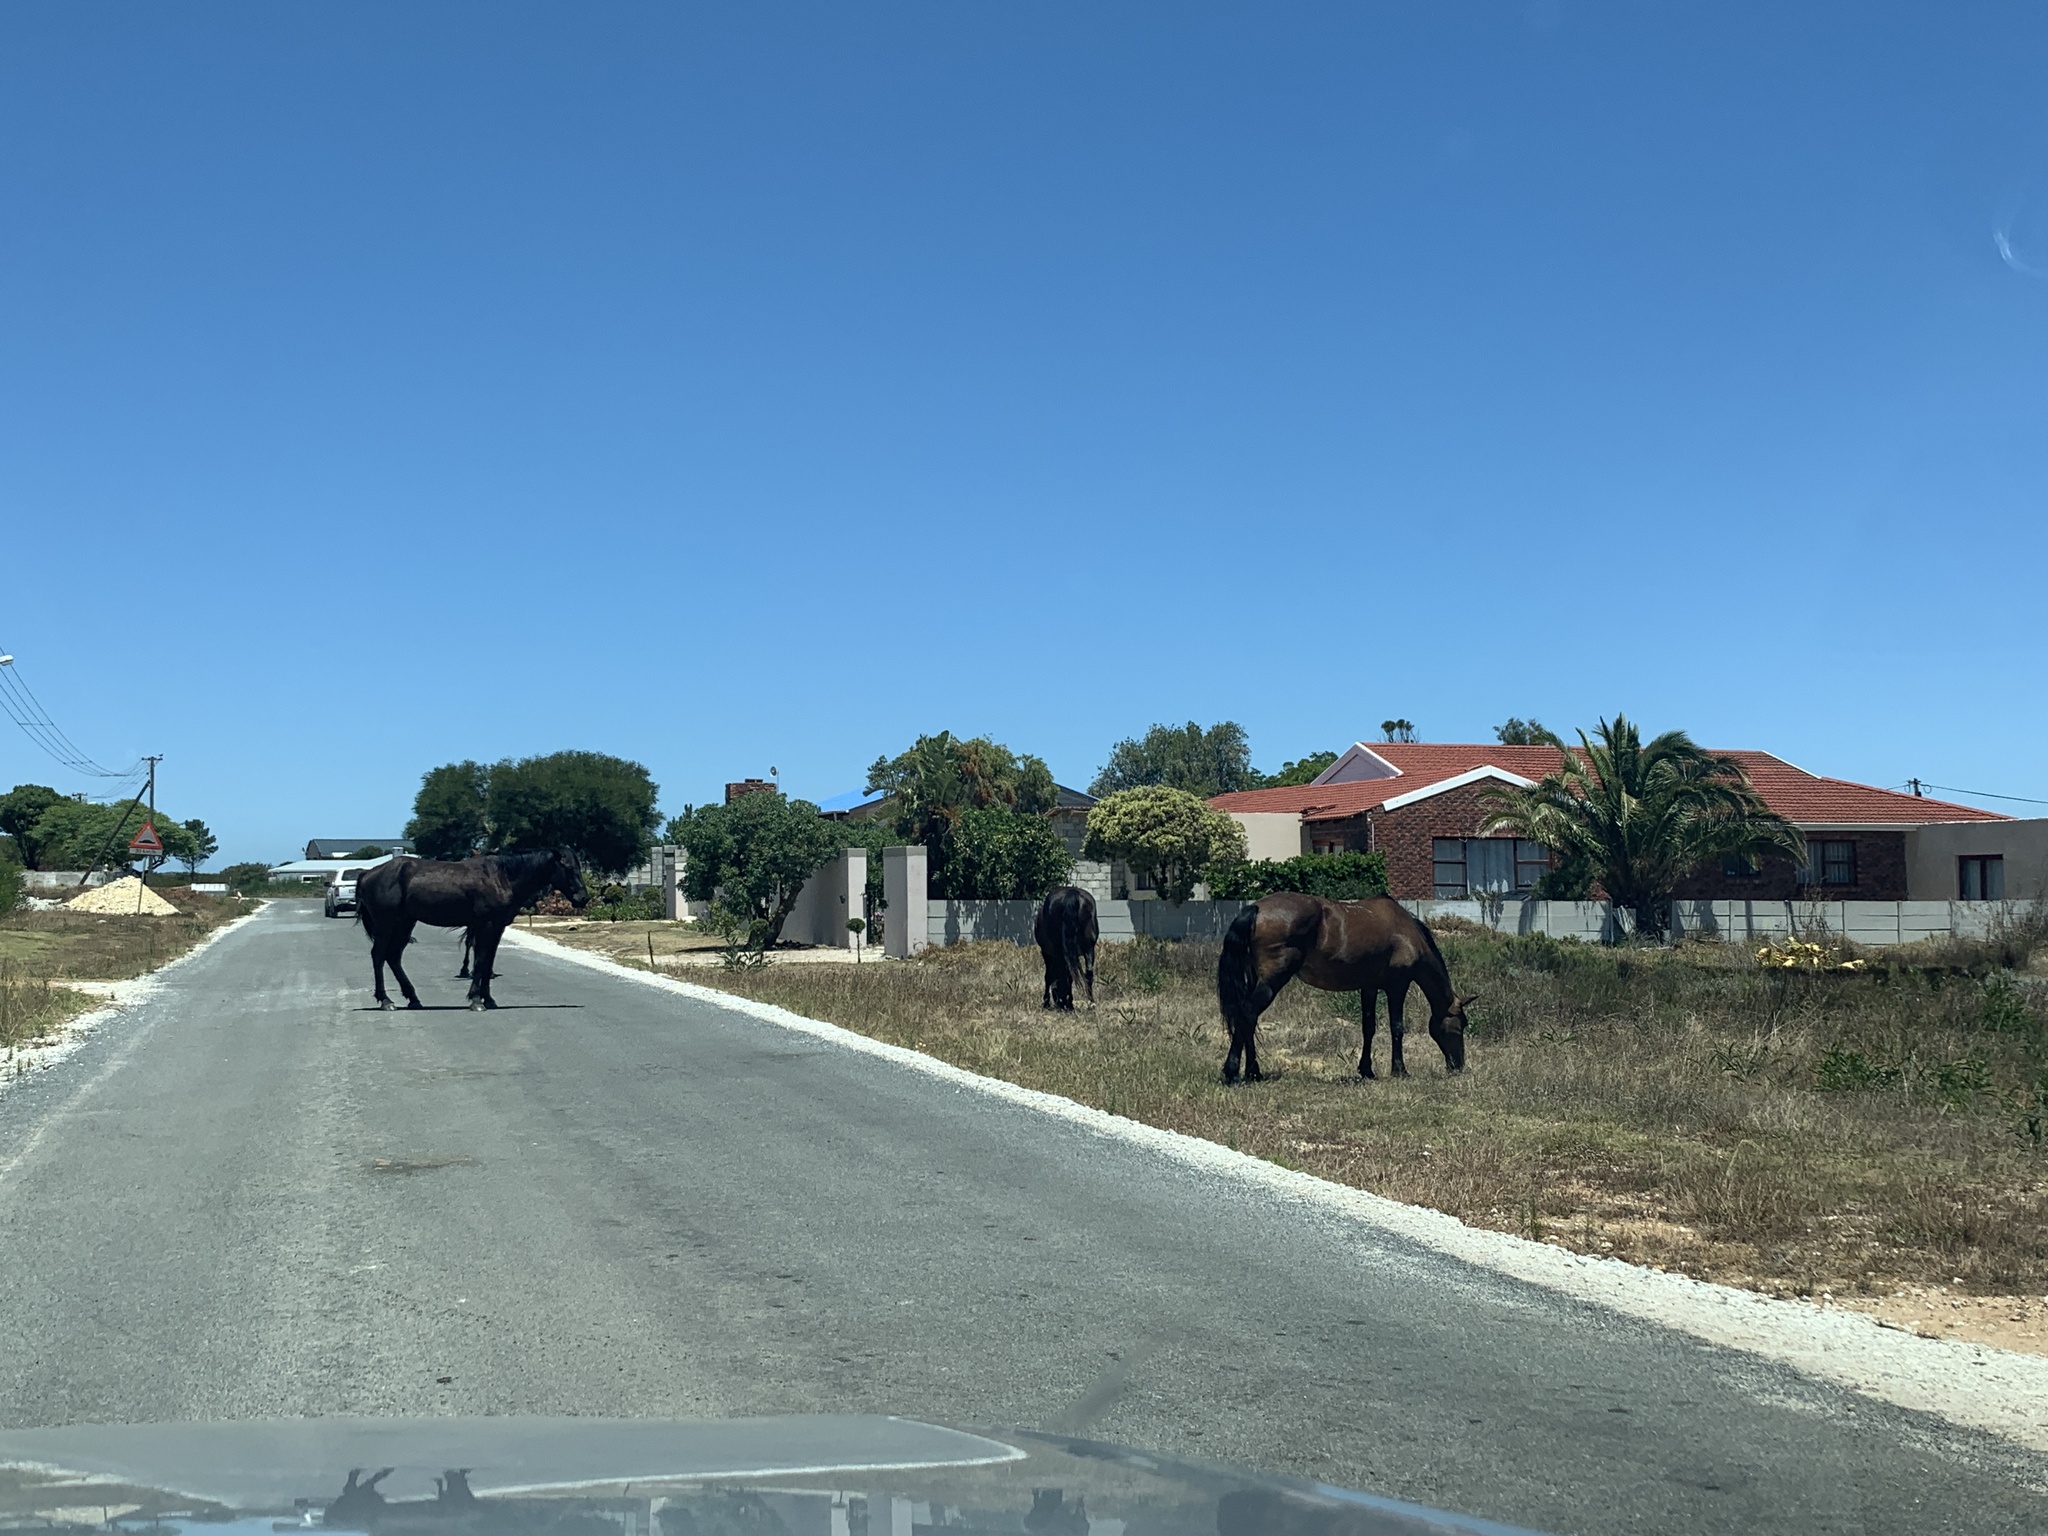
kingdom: Animalia
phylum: Chordata
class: Mammalia
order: Perissodactyla
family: Equidae
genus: Equus
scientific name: Equus caballus
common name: Horse
